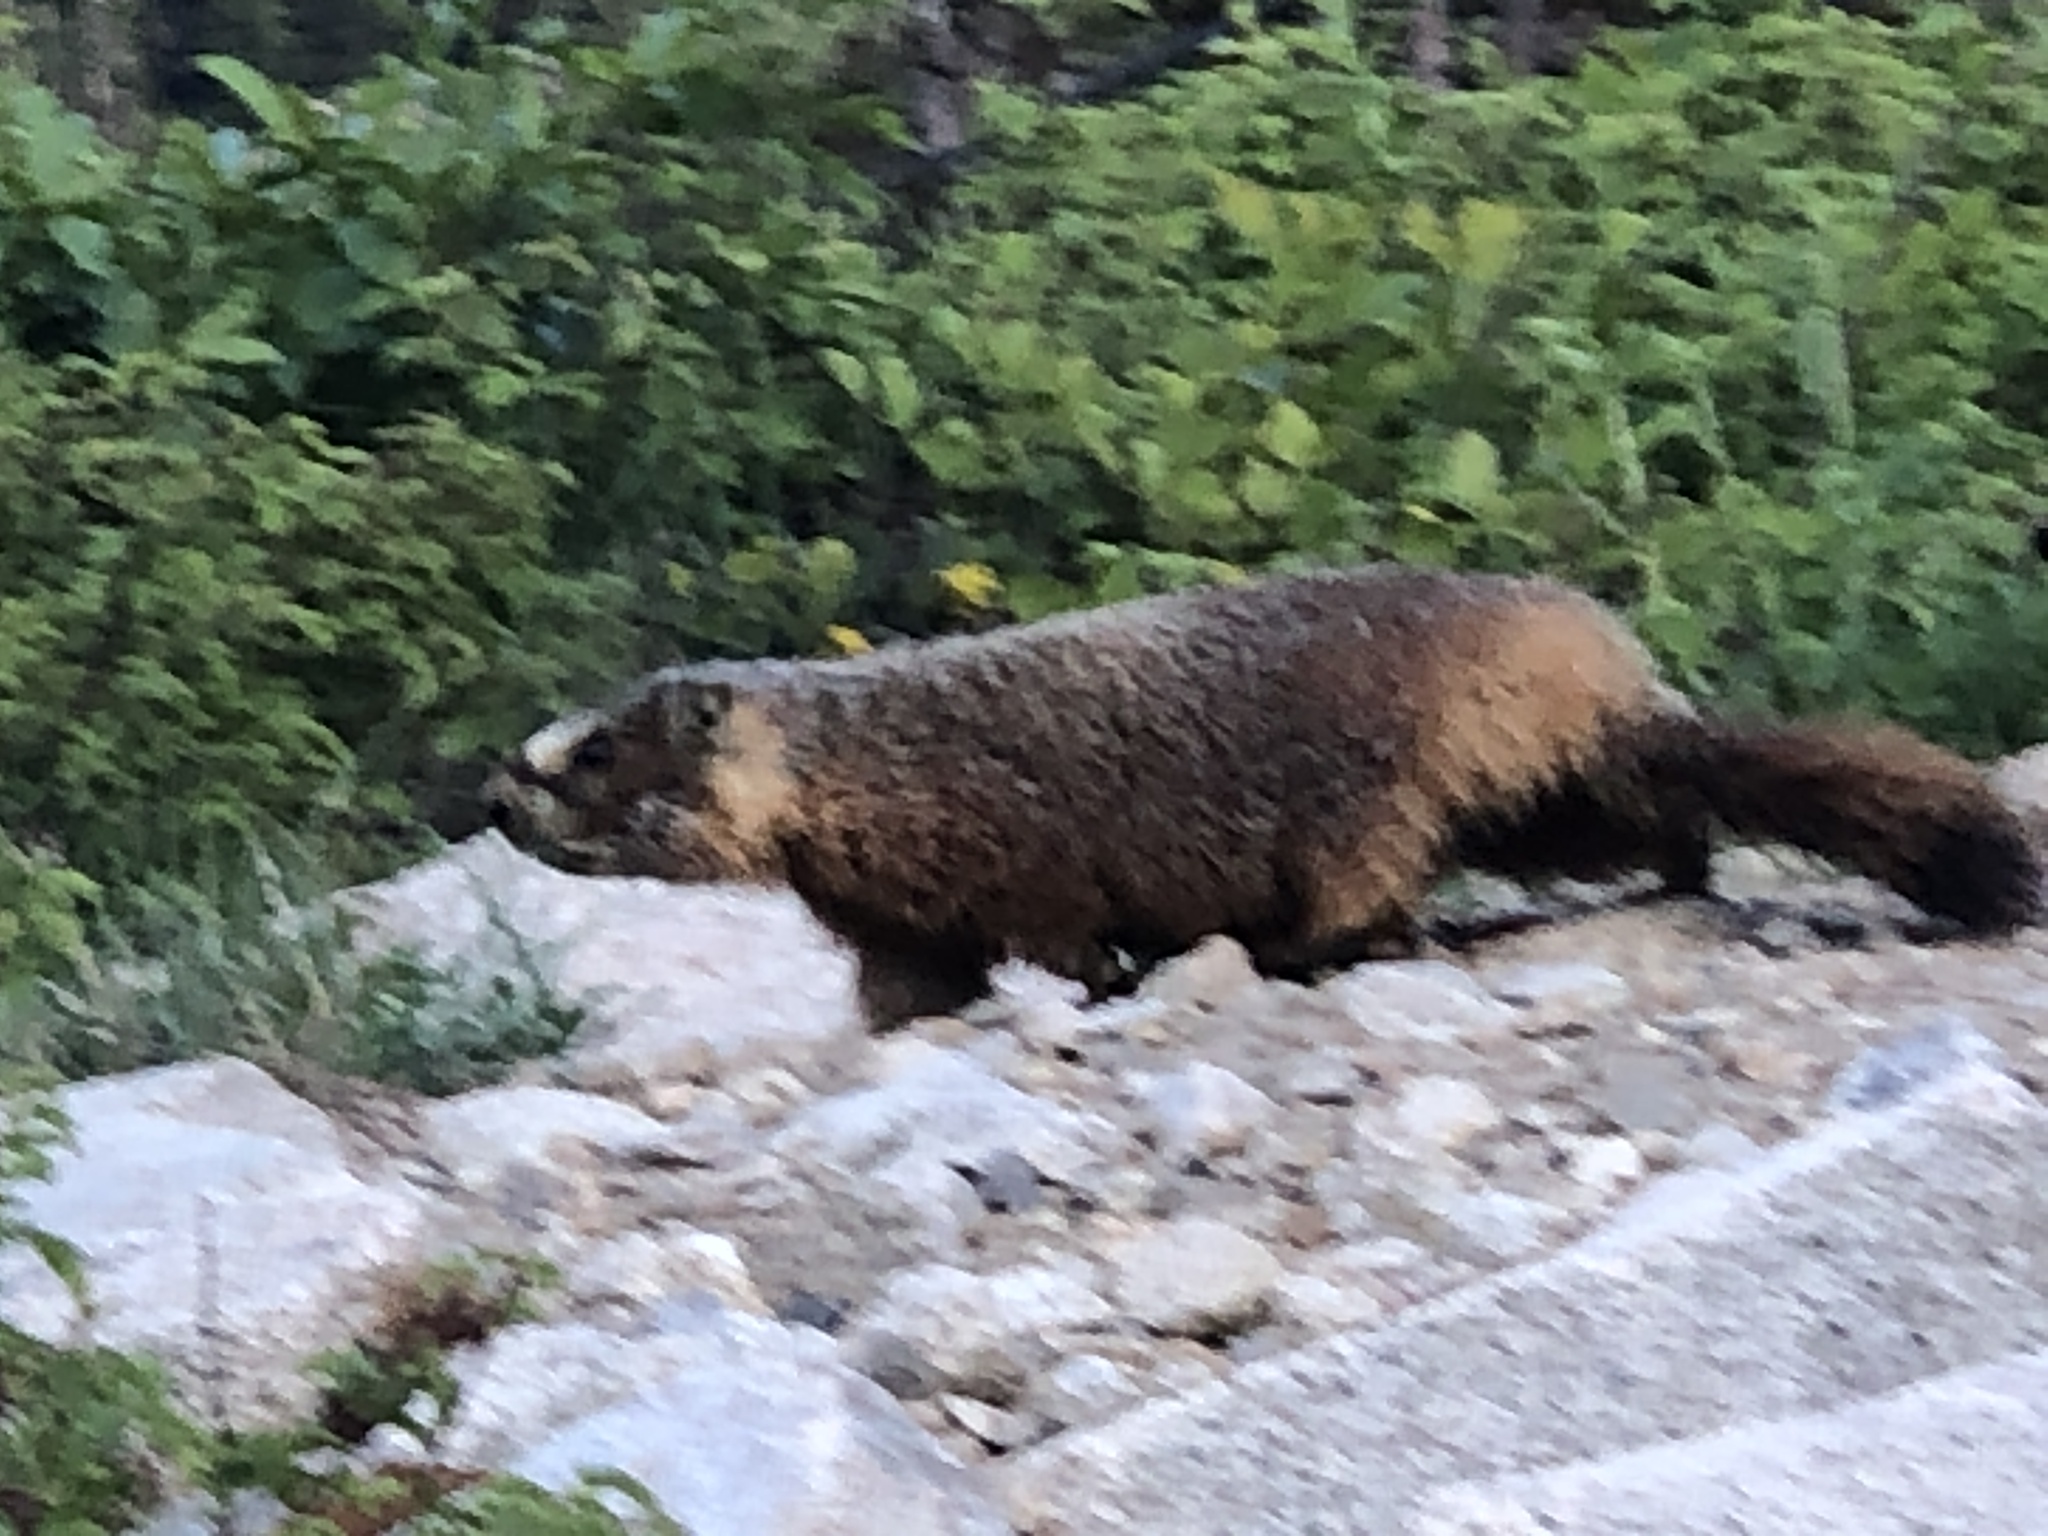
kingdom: Animalia
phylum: Chordata
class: Mammalia
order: Rodentia
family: Sciuridae
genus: Marmota
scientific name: Marmota flaviventris
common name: Yellow-bellied marmot
